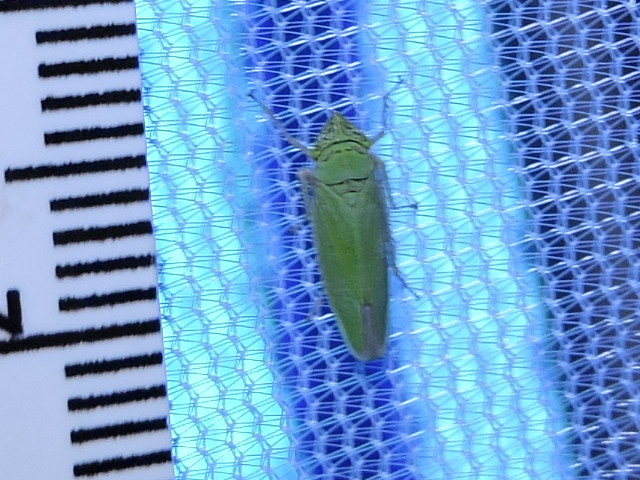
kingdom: Animalia
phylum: Arthropoda
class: Insecta
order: Hemiptera
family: Cicadellidae
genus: Draeculacephala
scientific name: Draeculacephala inscripta
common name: Leafhopper
